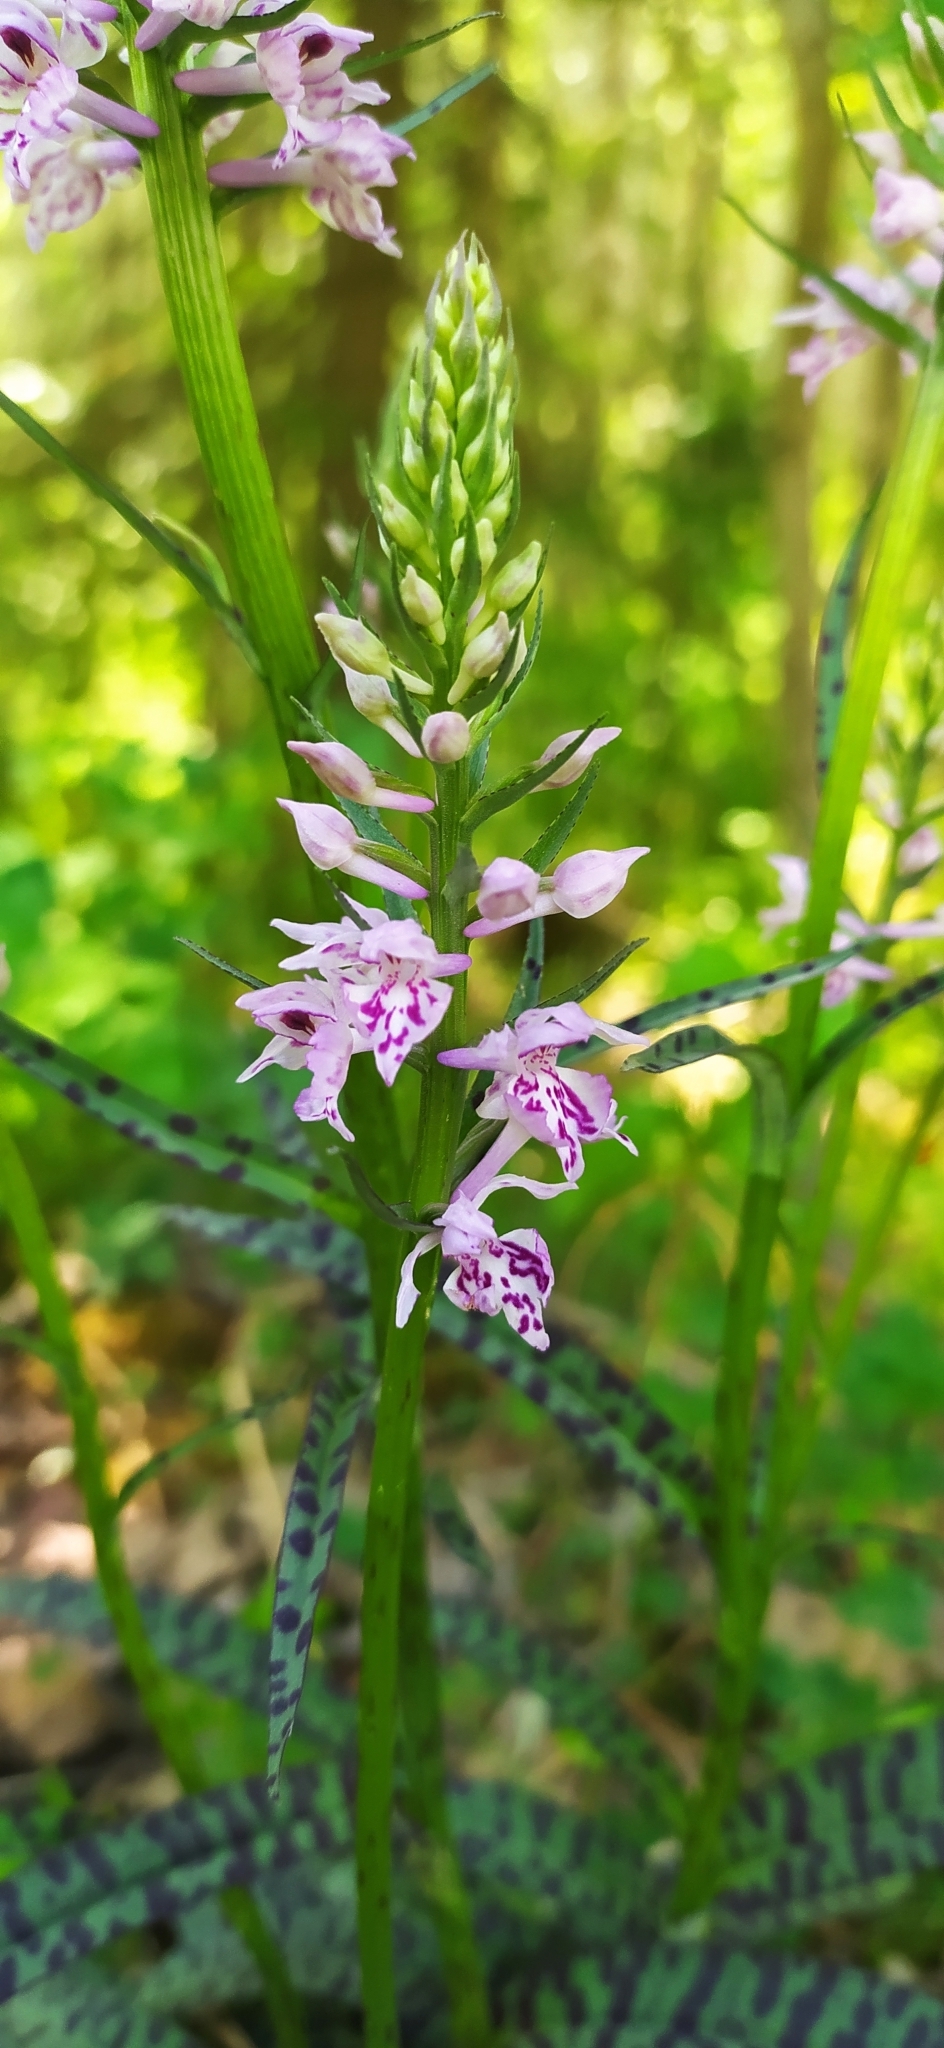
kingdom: Plantae
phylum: Tracheophyta
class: Liliopsida
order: Asparagales
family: Orchidaceae
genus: Dactylorhiza
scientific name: Dactylorhiza maculata
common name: Heath spotted-orchid
